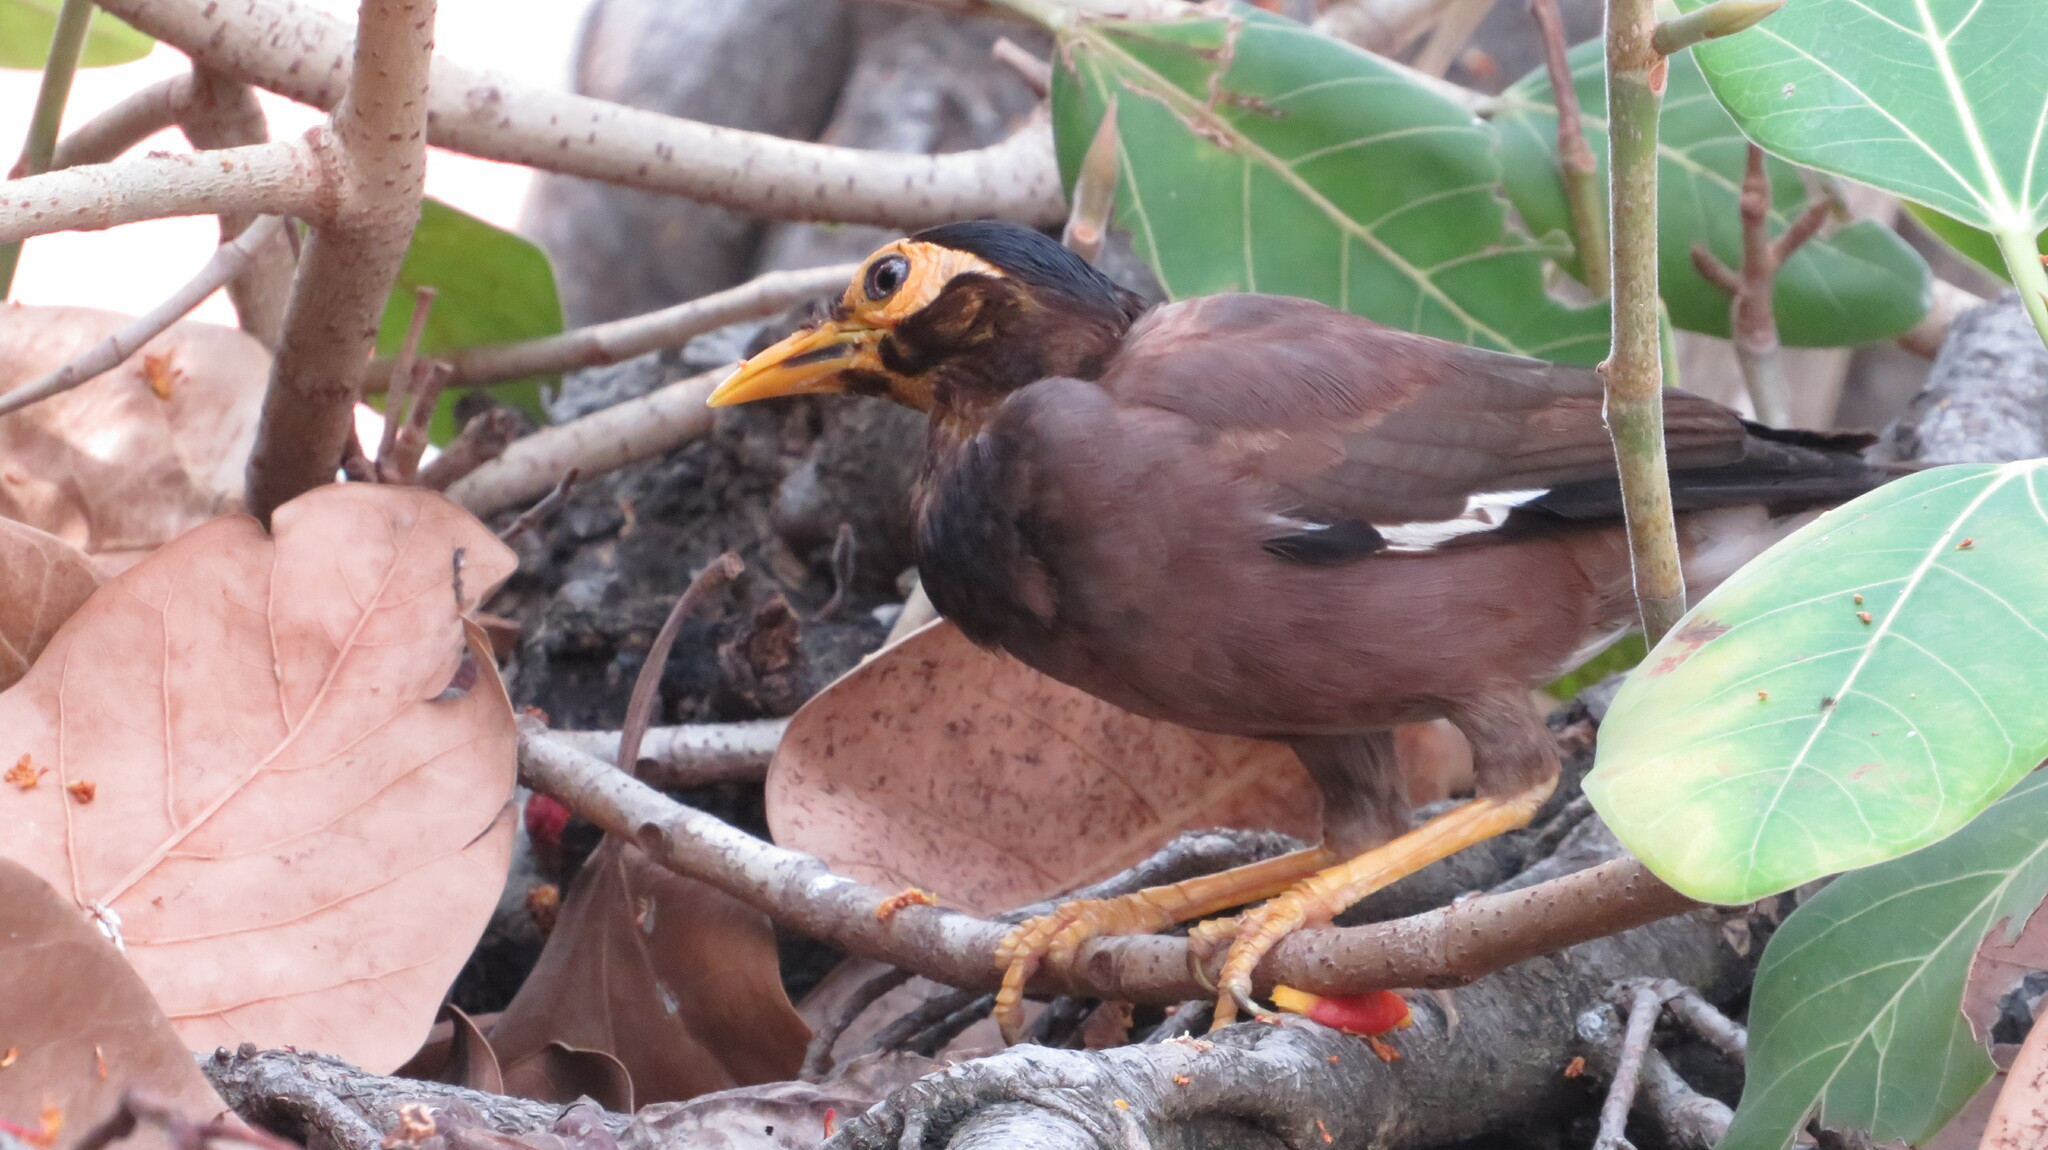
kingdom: Animalia
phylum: Chordata
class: Aves
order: Passeriformes
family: Sturnidae
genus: Acridotheres
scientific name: Acridotheres tristis
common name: Common myna
